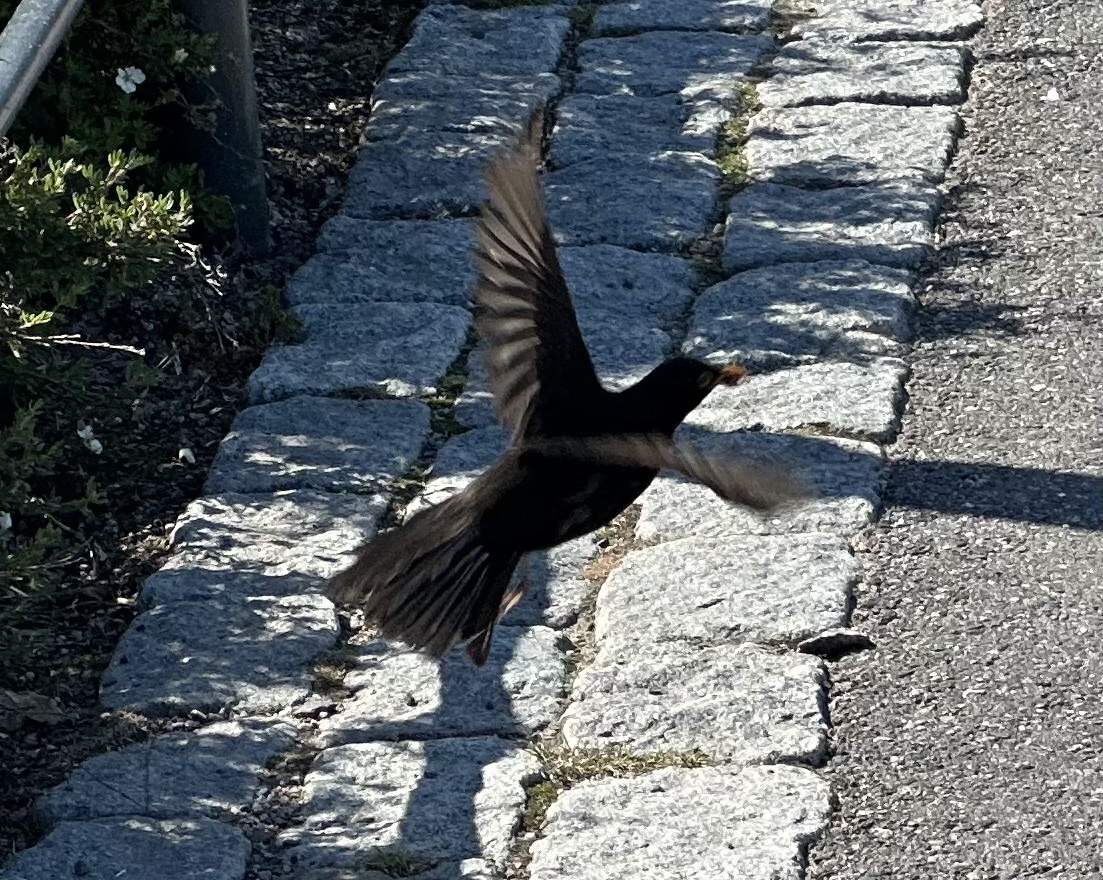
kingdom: Animalia
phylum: Chordata
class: Aves
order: Passeriformes
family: Turdidae
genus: Turdus
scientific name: Turdus merula
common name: Common blackbird
